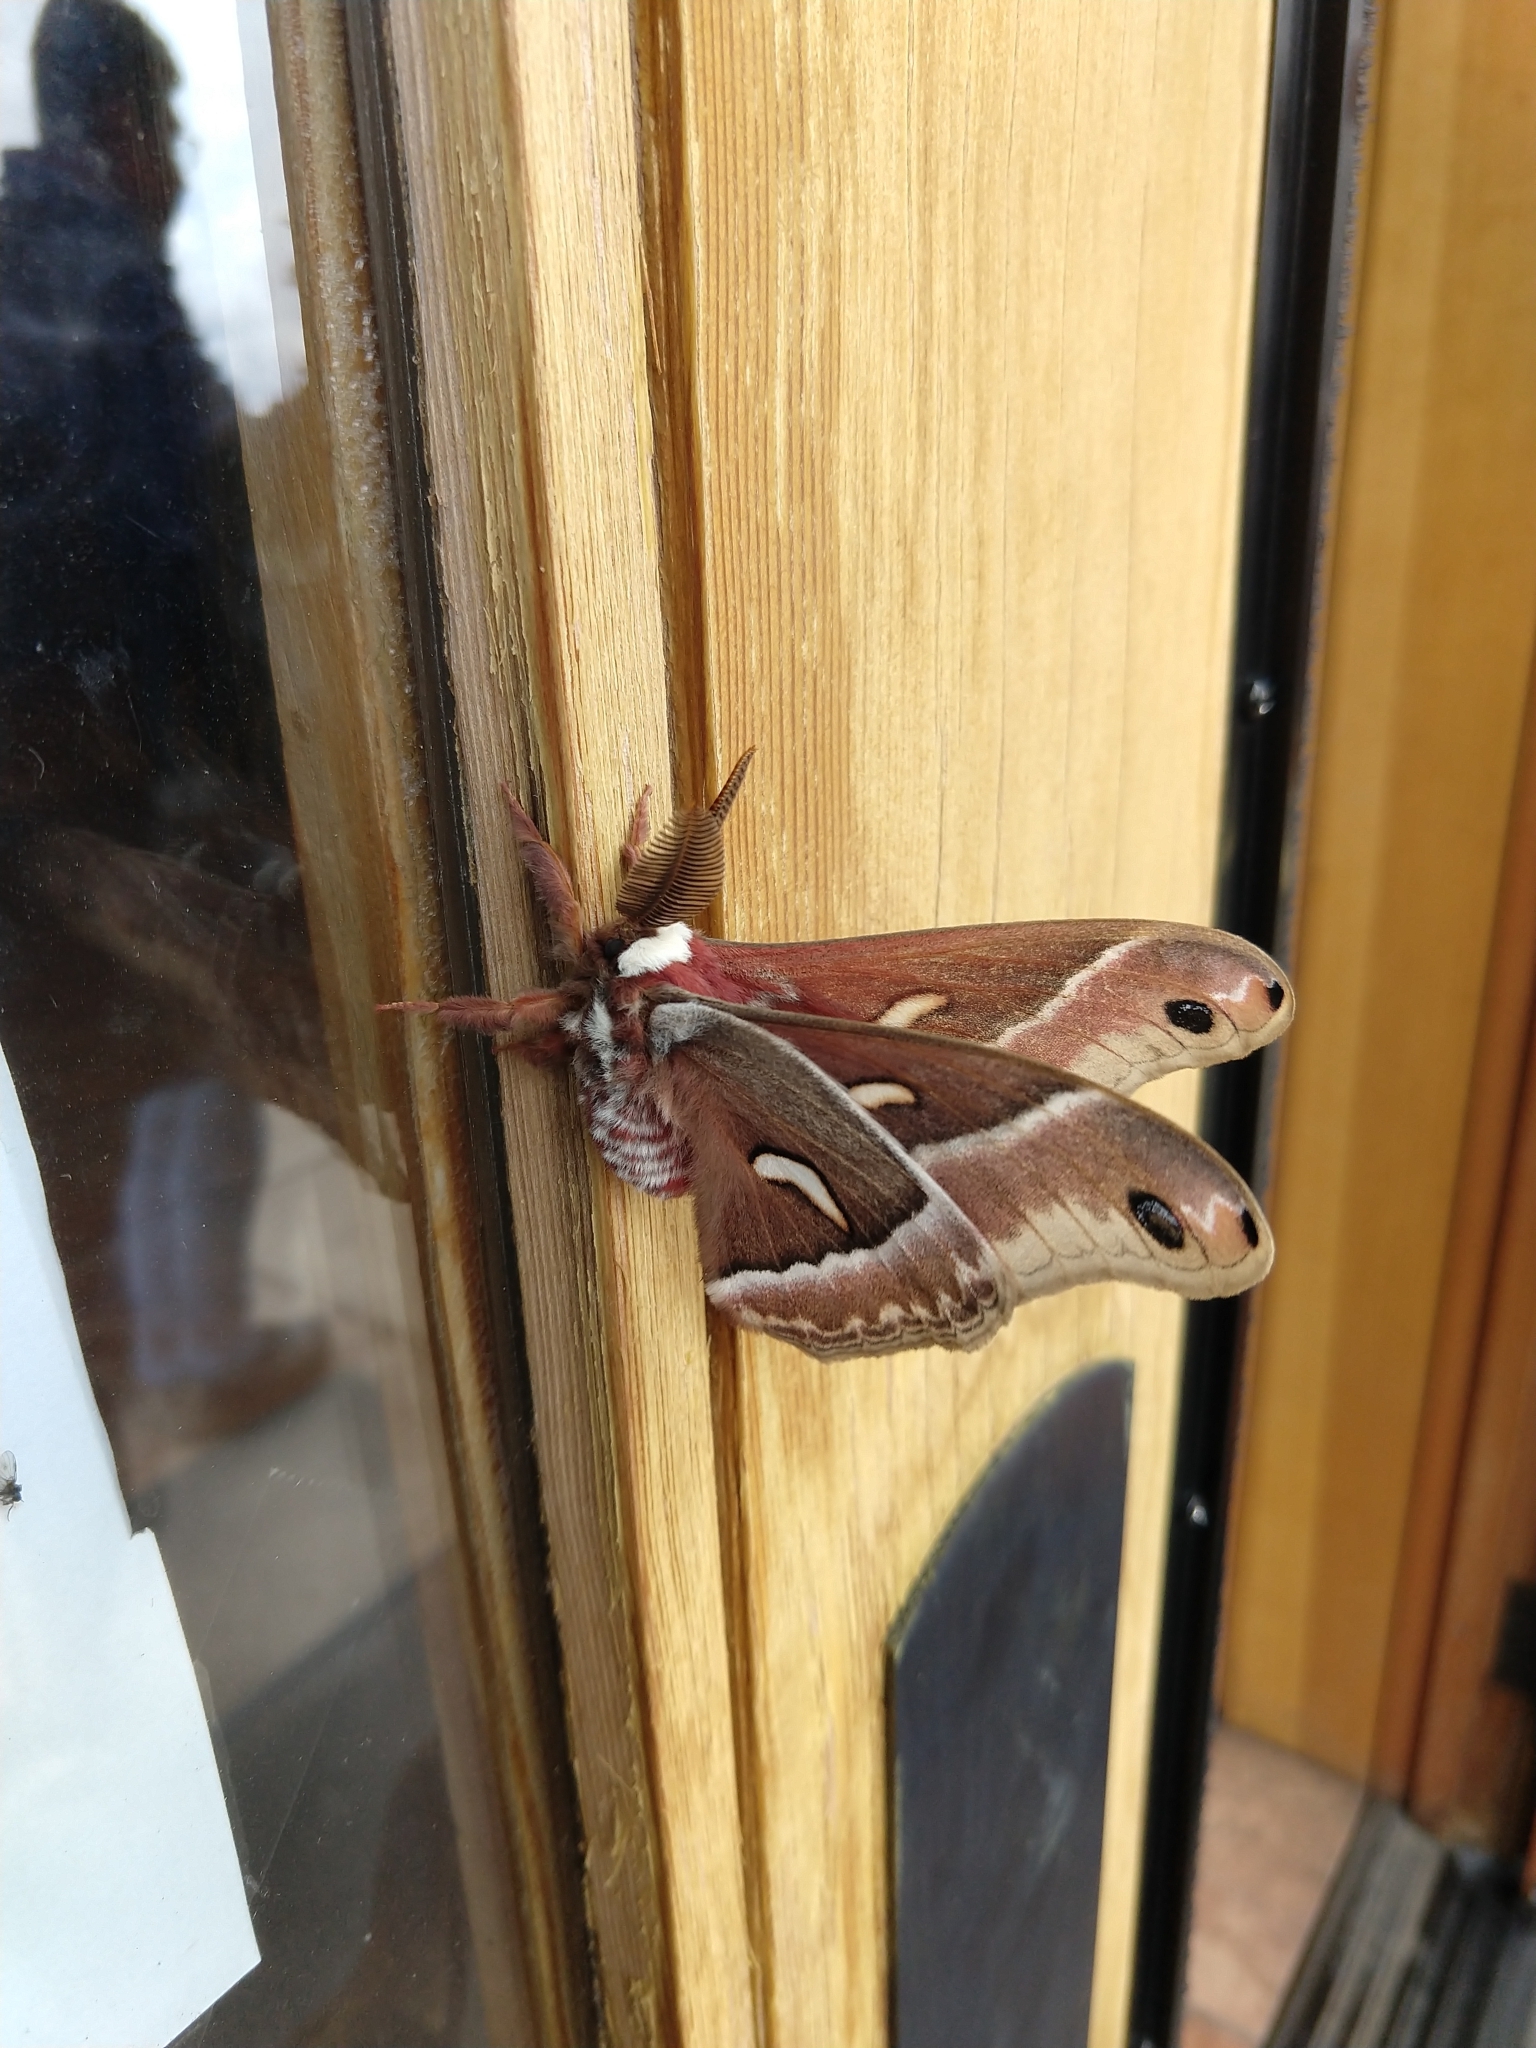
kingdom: Animalia
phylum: Arthropoda
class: Insecta
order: Lepidoptera
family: Saturniidae
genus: Hyalophora
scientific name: Hyalophora euryalus
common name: Ceanothus silkmoth
